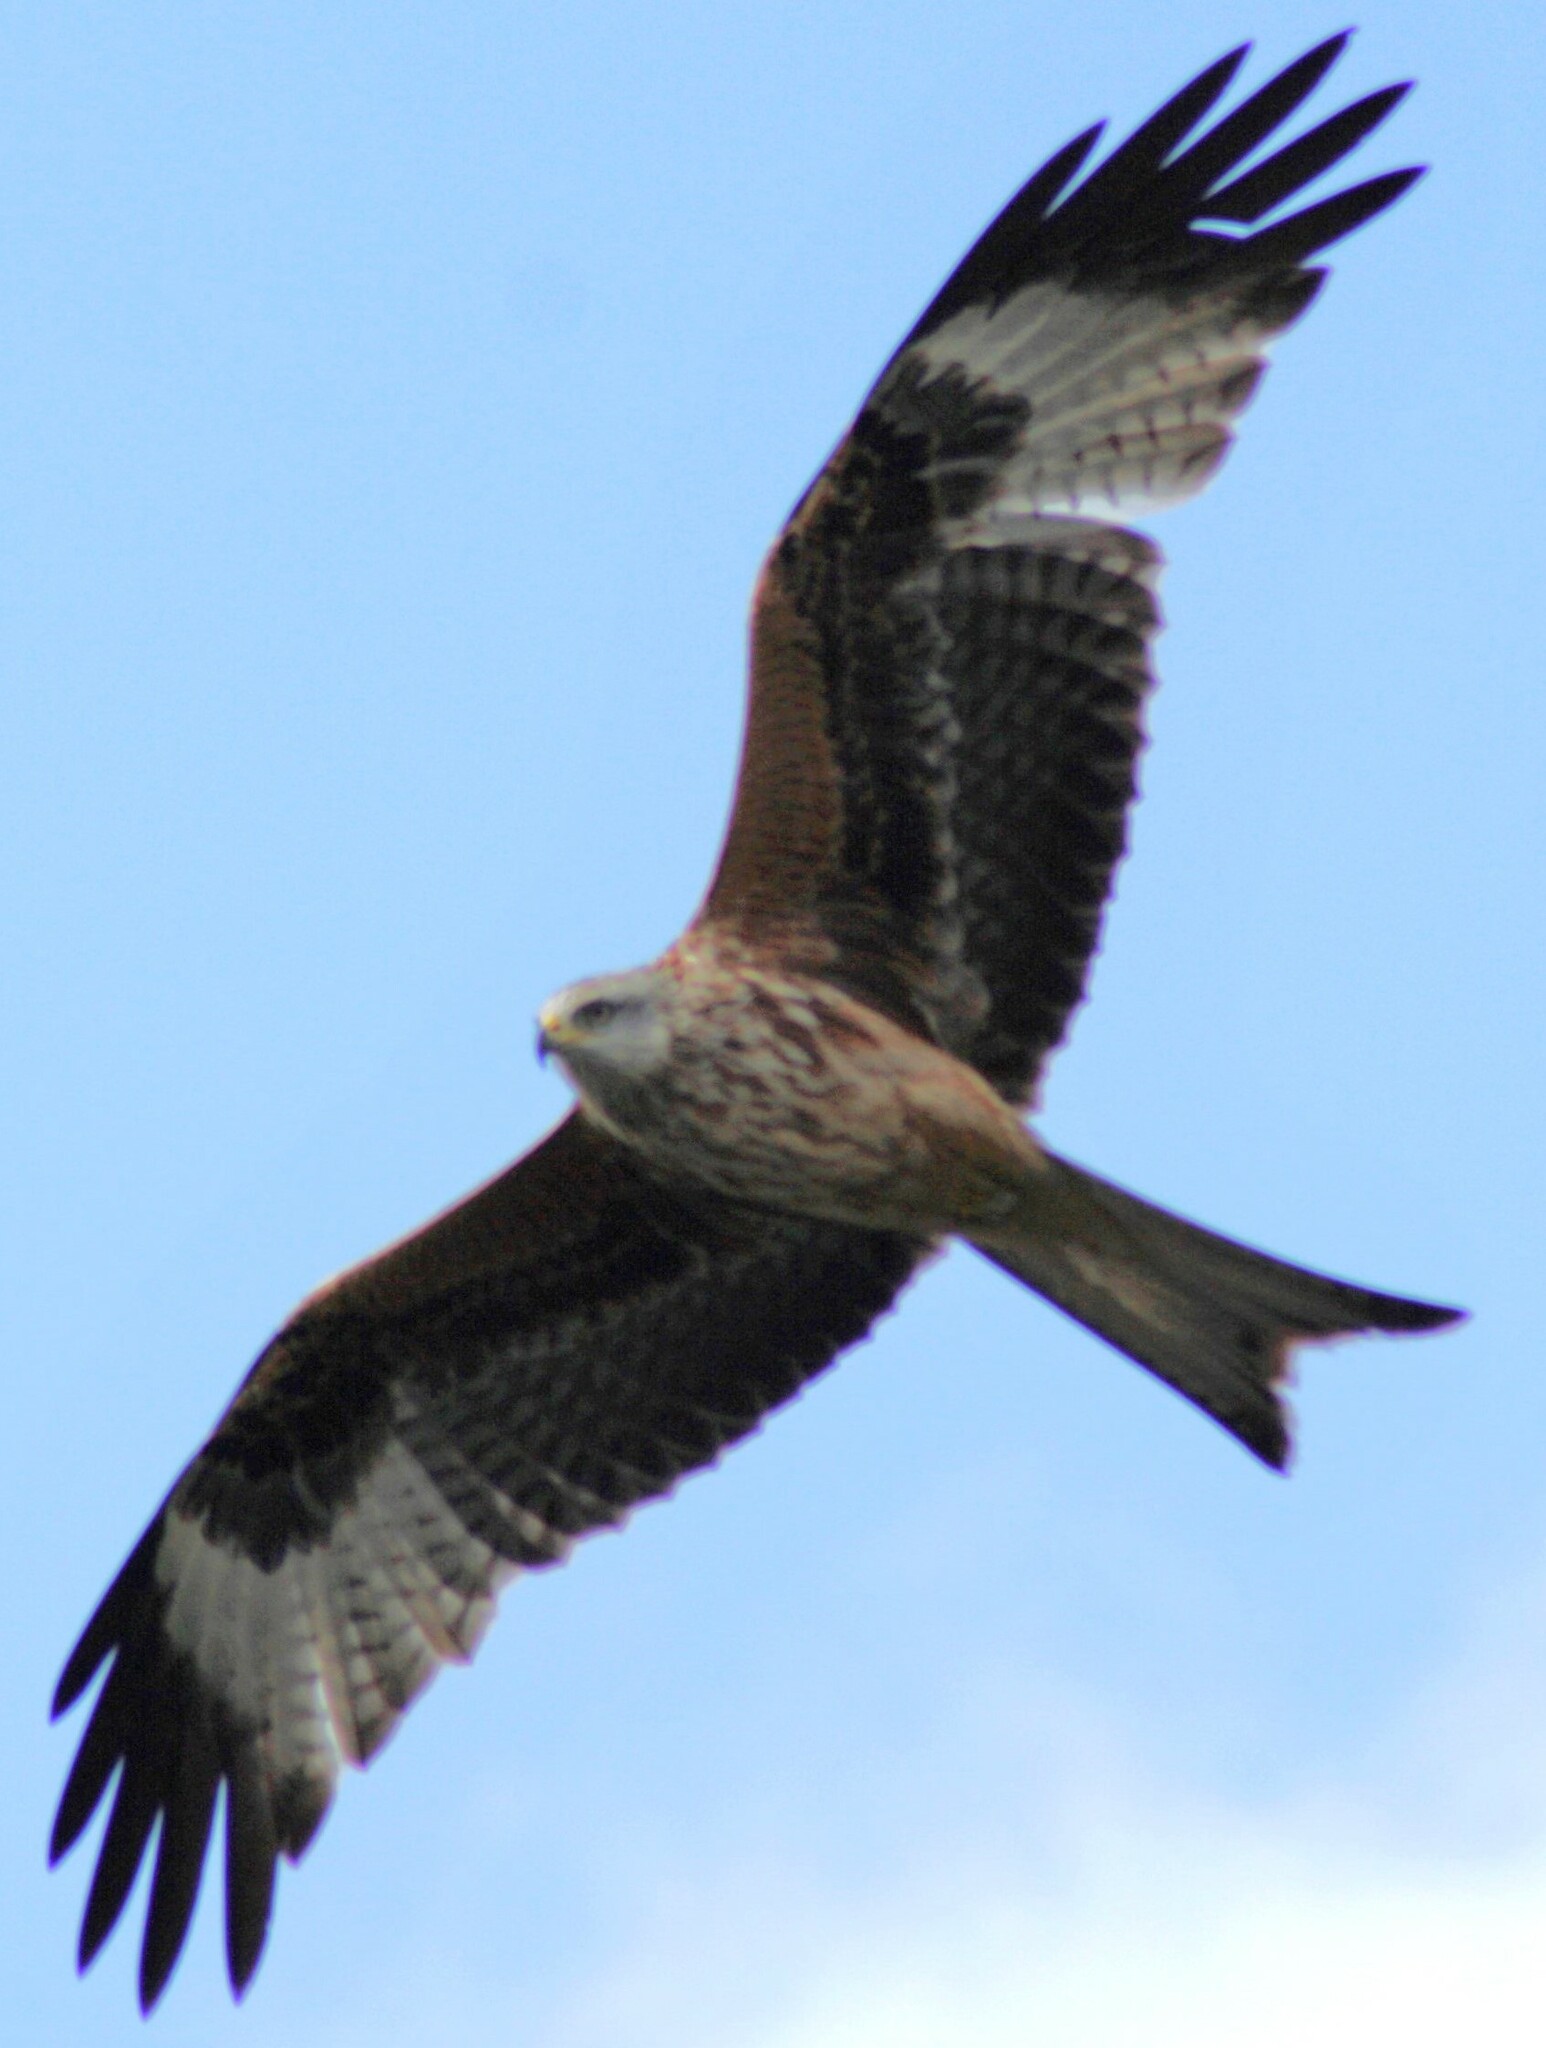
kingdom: Animalia
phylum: Chordata
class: Aves
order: Accipitriformes
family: Accipitridae
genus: Milvus
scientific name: Milvus milvus
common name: Red kite
